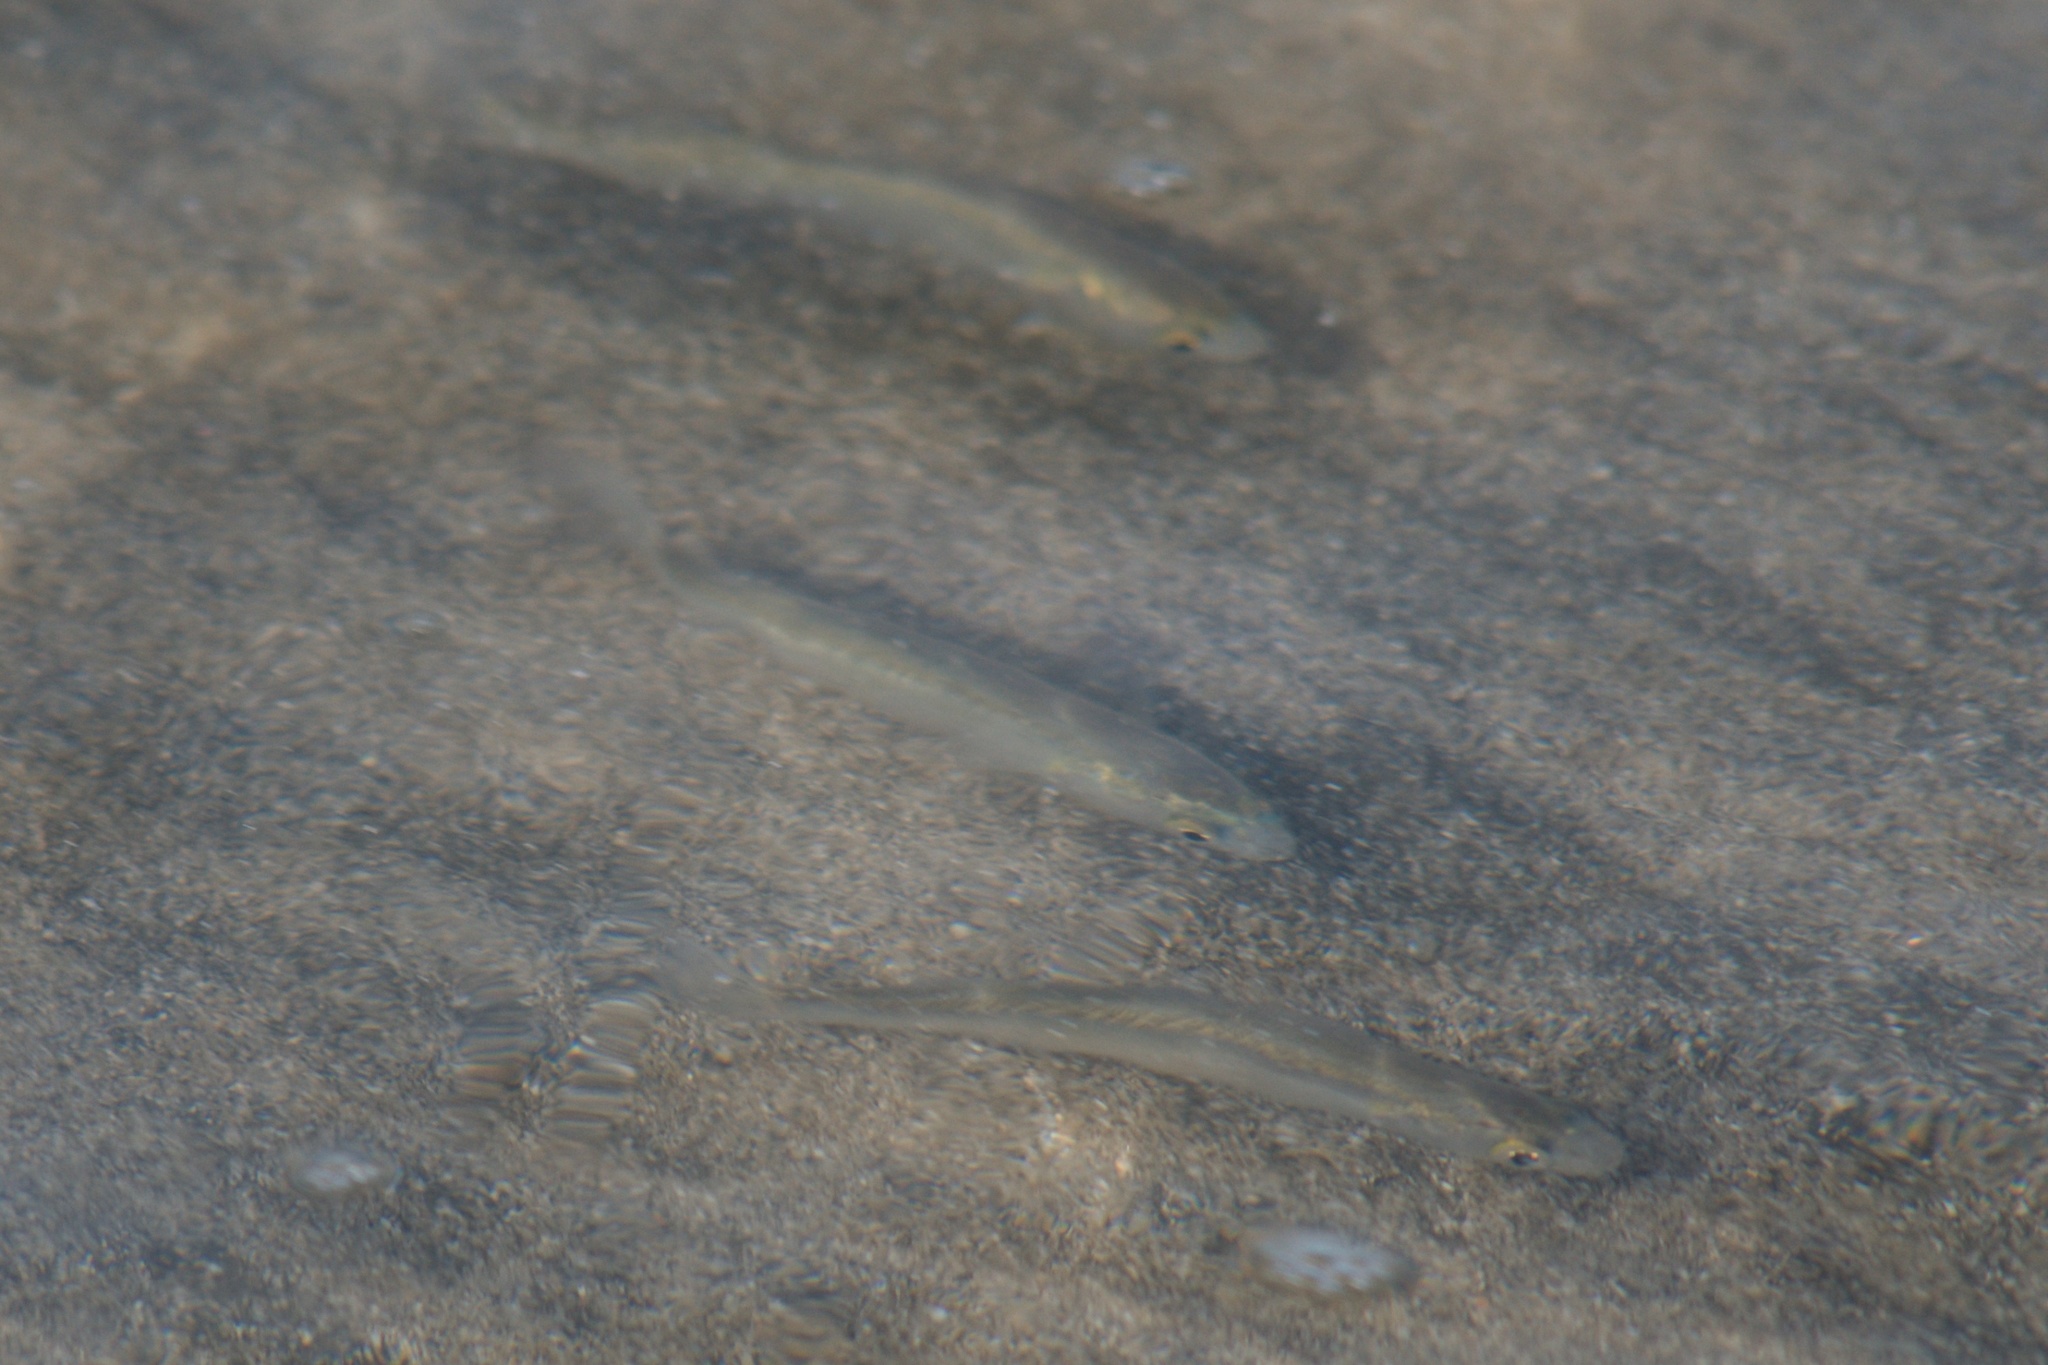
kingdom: Animalia
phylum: Chordata
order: Mugiliformes
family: Mugilidae
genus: Aldrichetta
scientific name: Aldrichetta forsteri
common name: Yellow-eye mullet
